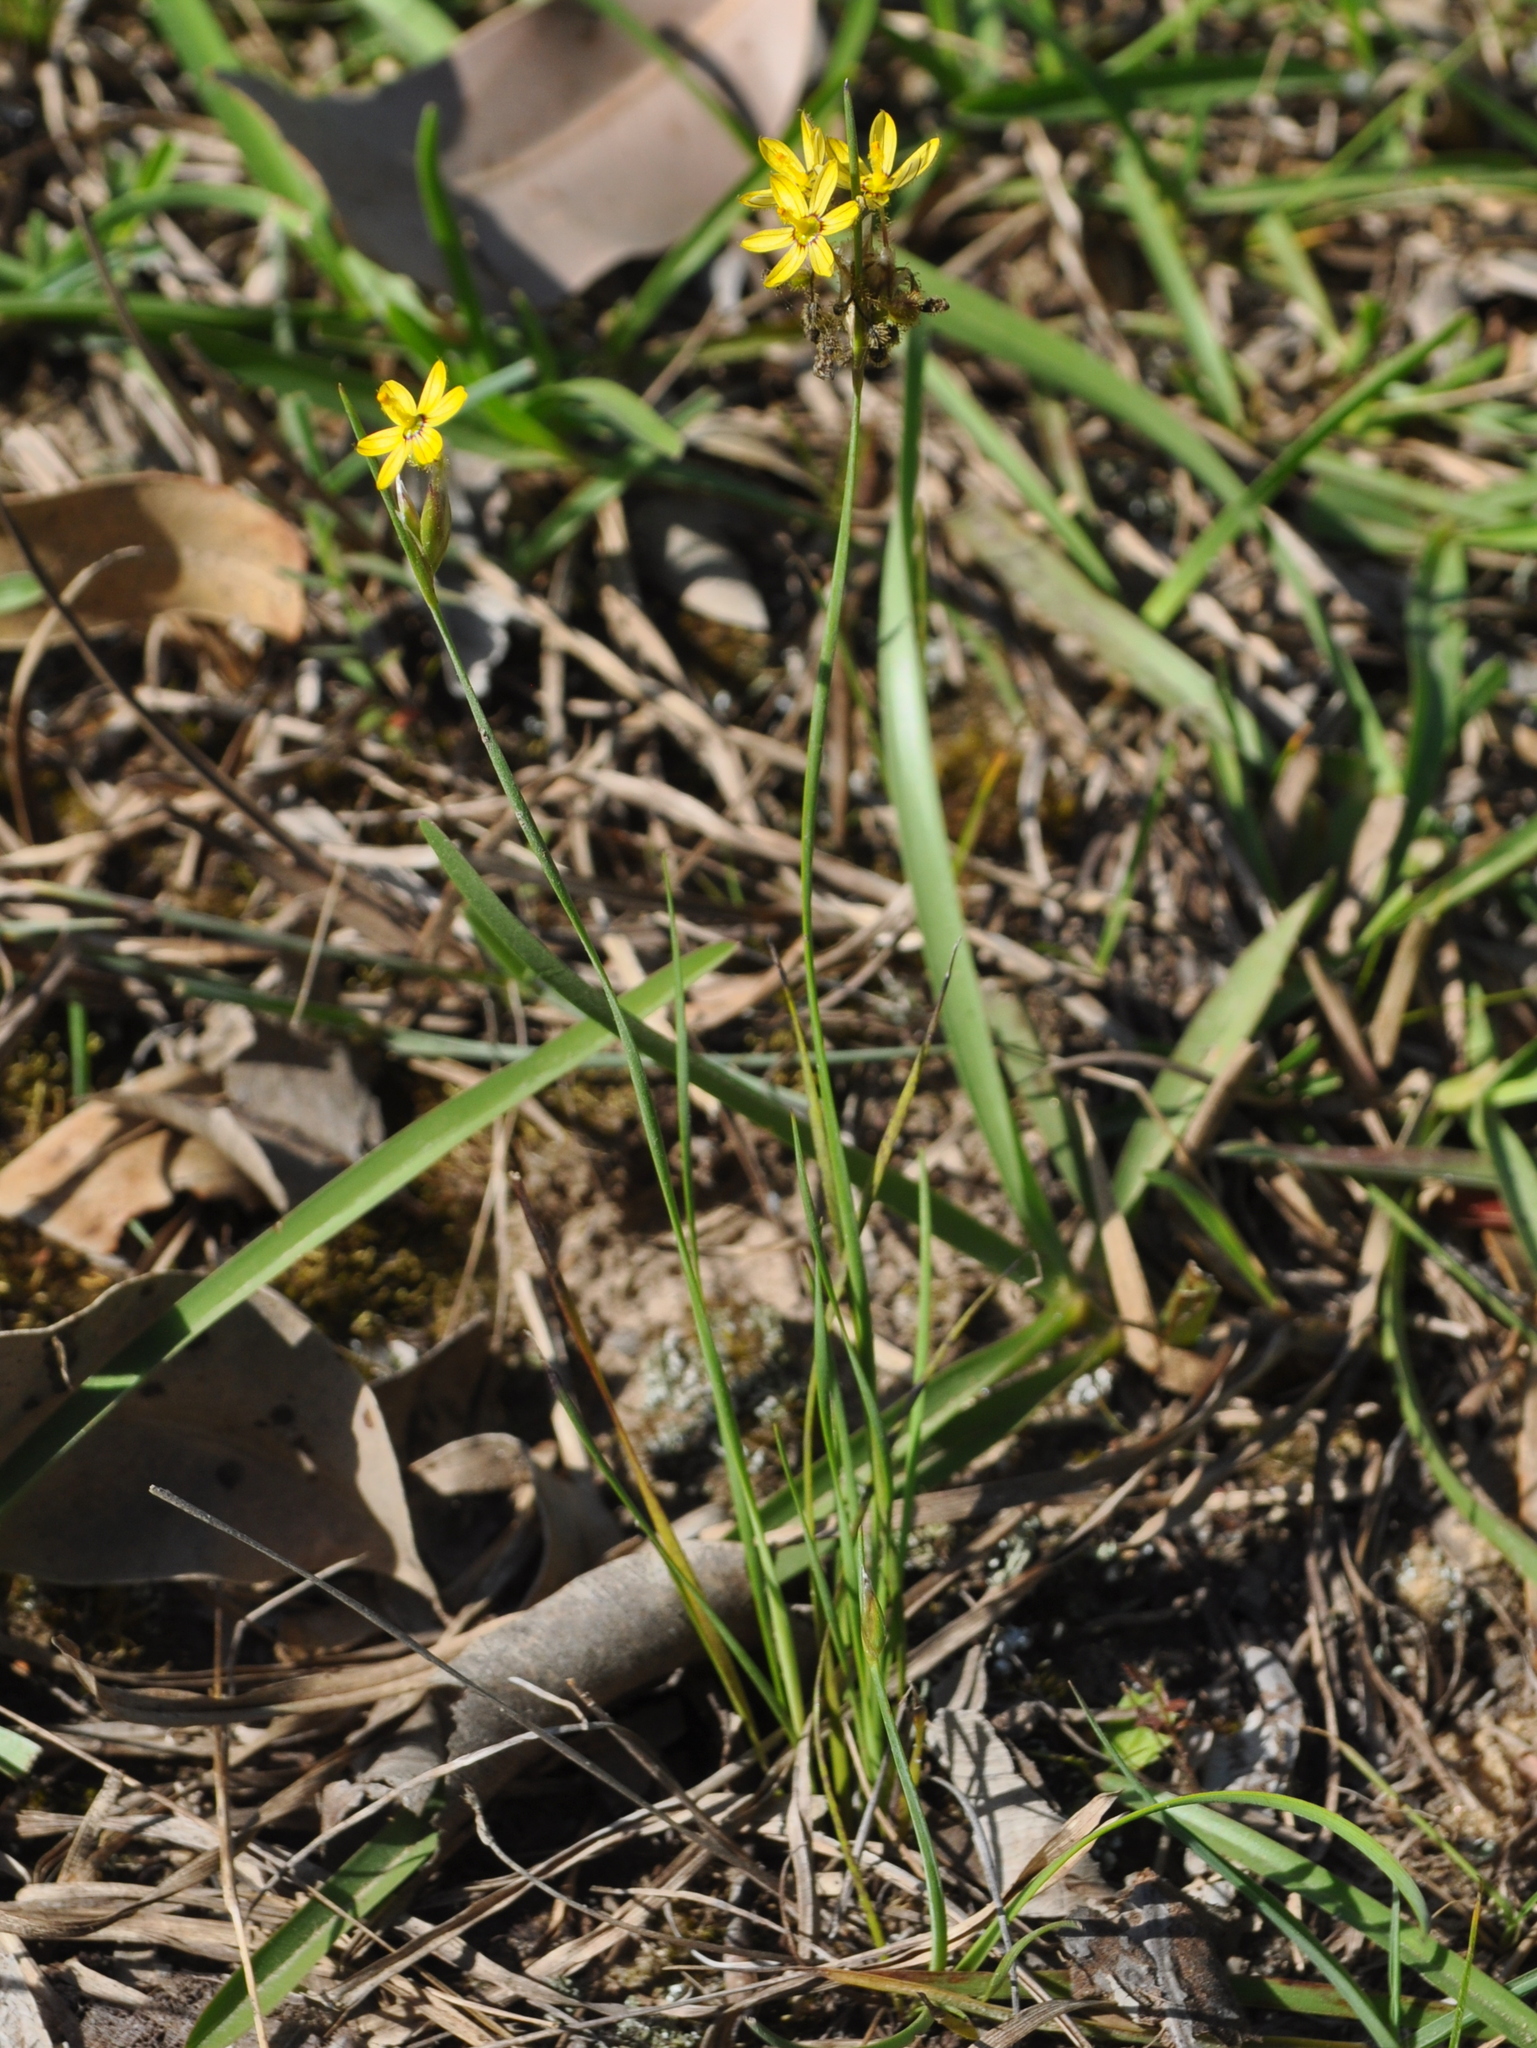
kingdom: Plantae
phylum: Tracheophyta
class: Liliopsida
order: Asparagales
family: Iridaceae
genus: Sisyrinchium
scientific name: Sisyrinchium commutatum
